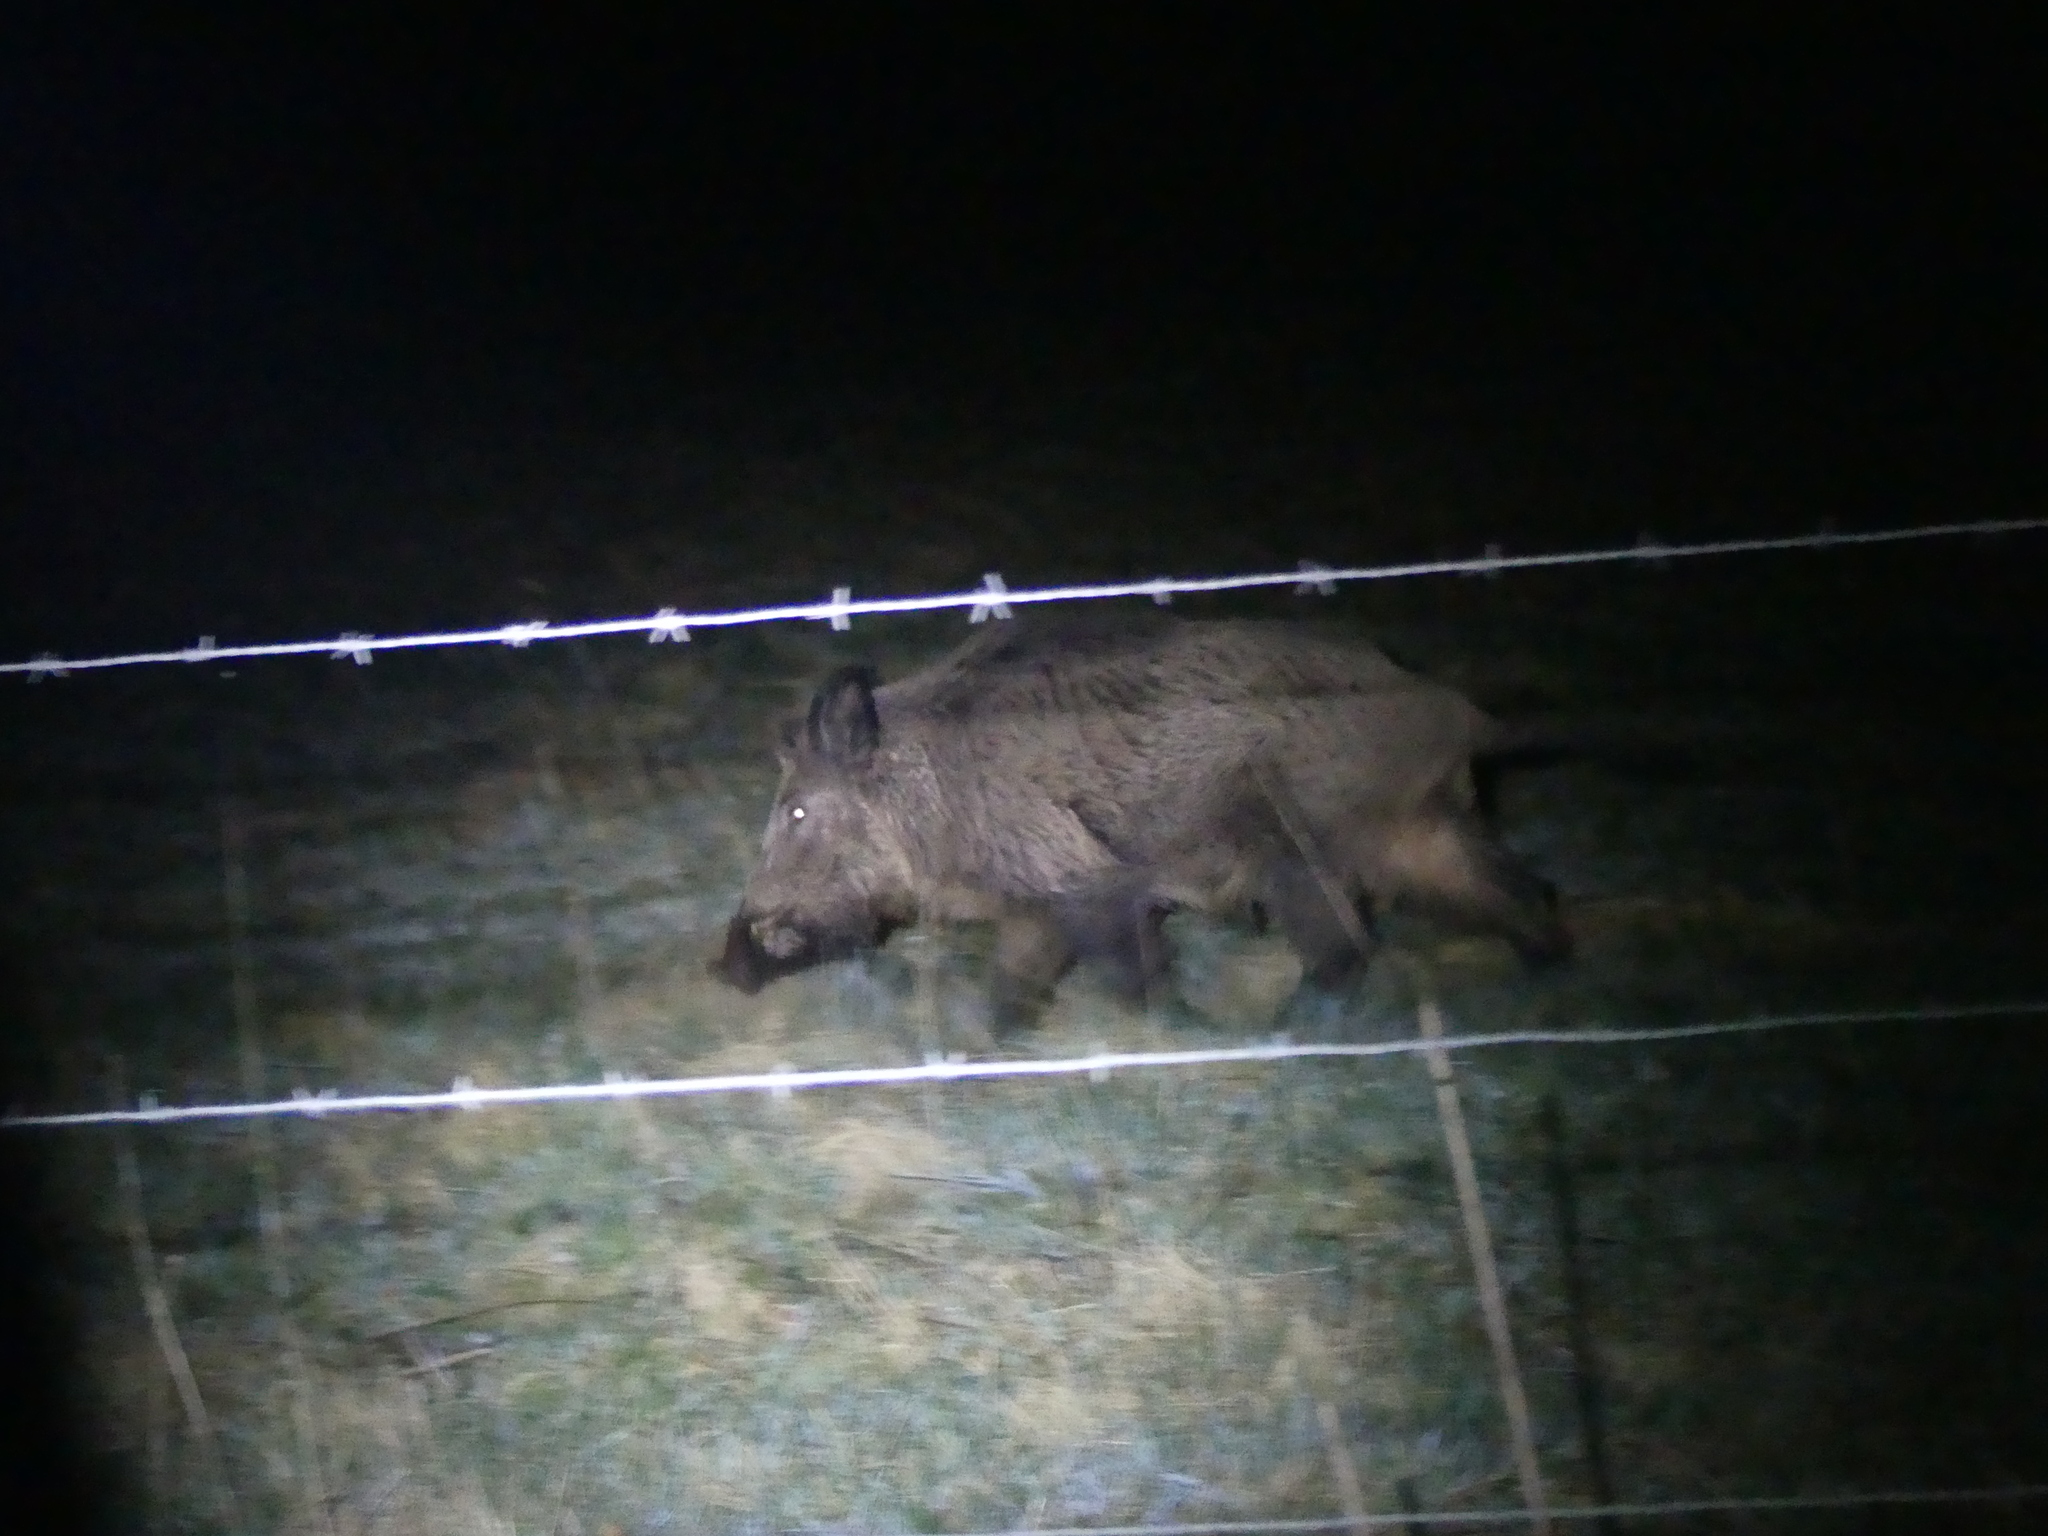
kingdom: Animalia
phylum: Chordata
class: Mammalia
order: Artiodactyla
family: Suidae
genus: Sus
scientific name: Sus scrofa
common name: Wild boar
